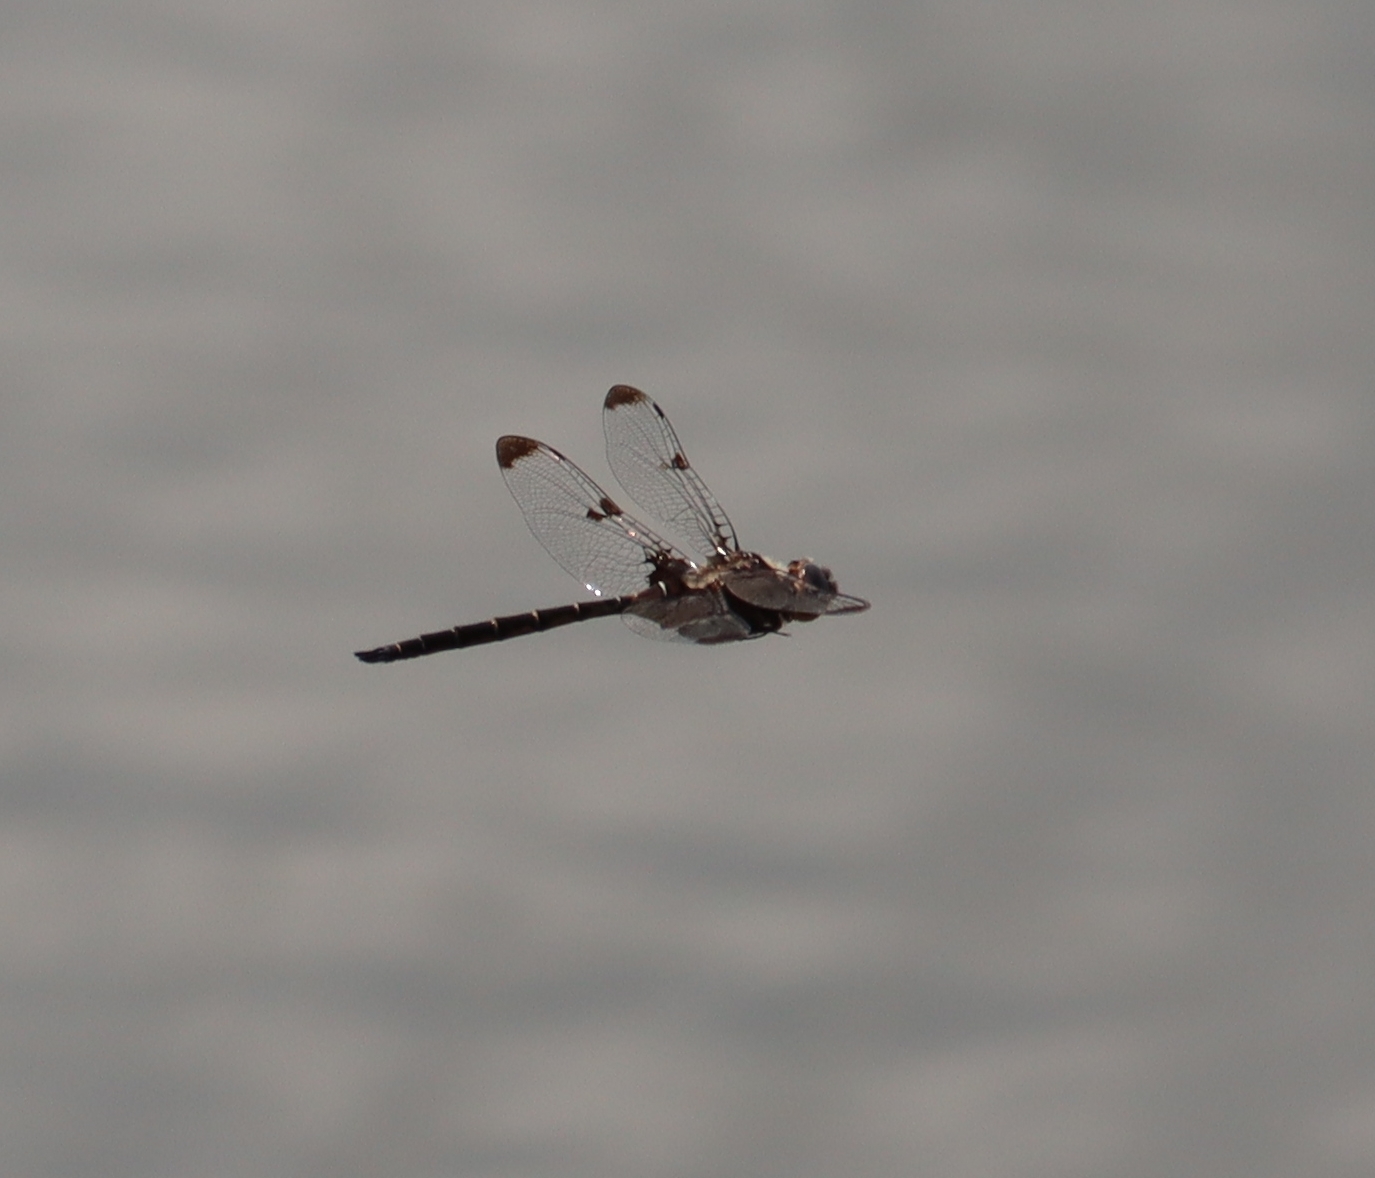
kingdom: Animalia
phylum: Arthropoda
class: Insecta
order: Odonata
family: Corduliidae
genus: Epitheca
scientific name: Epitheca princeps
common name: Prince baskettail
